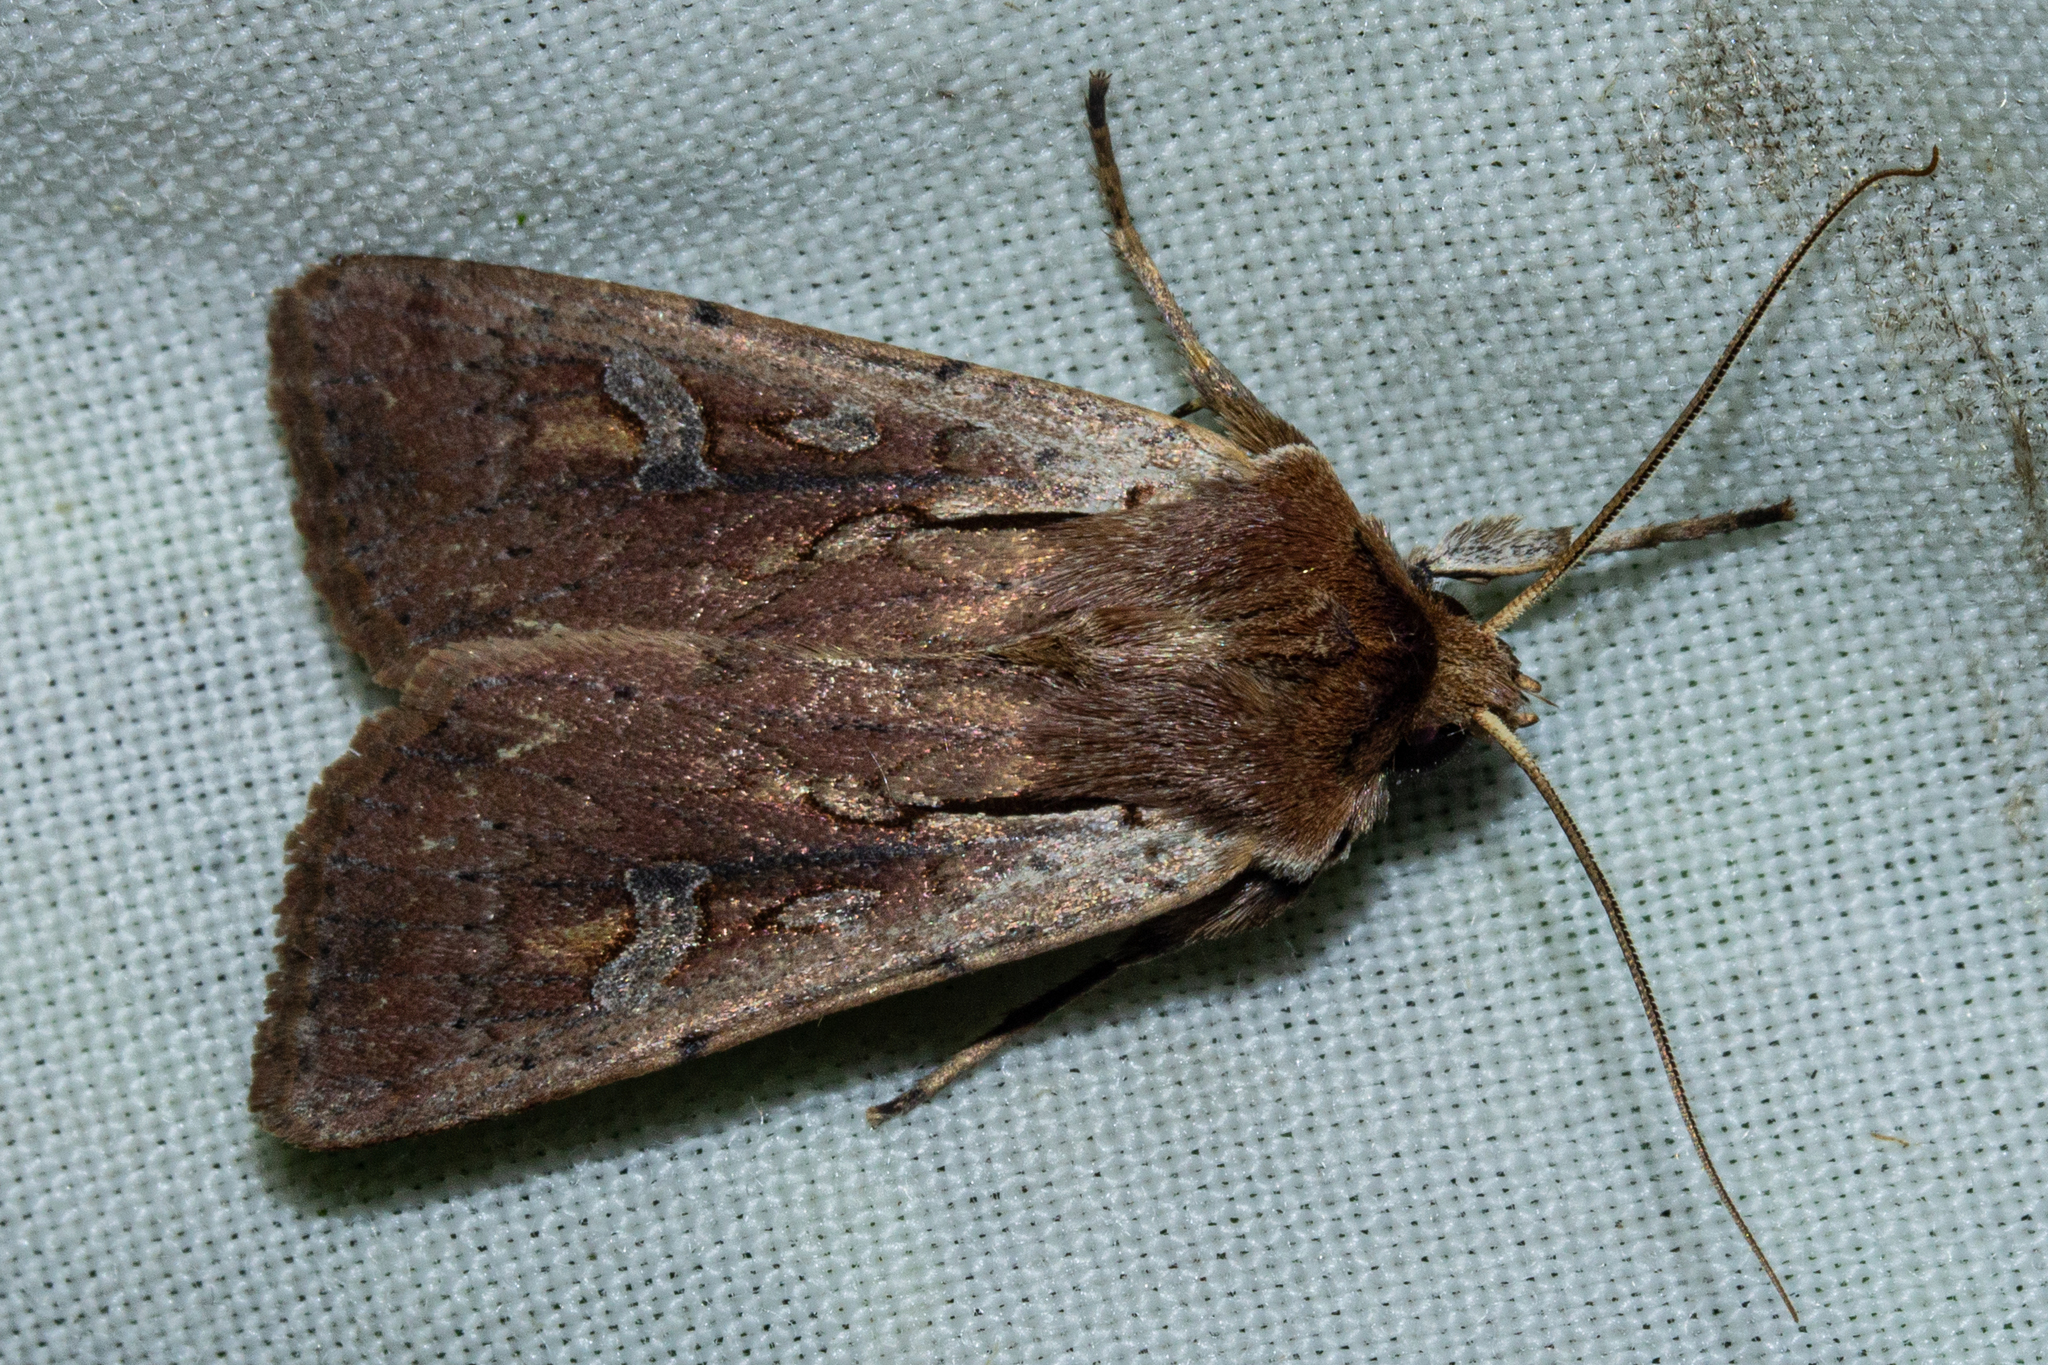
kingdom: Animalia
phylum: Arthropoda
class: Insecta
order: Lepidoptera
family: Noctuidae
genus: Ichneutica
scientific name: Ichneutica atristriga
